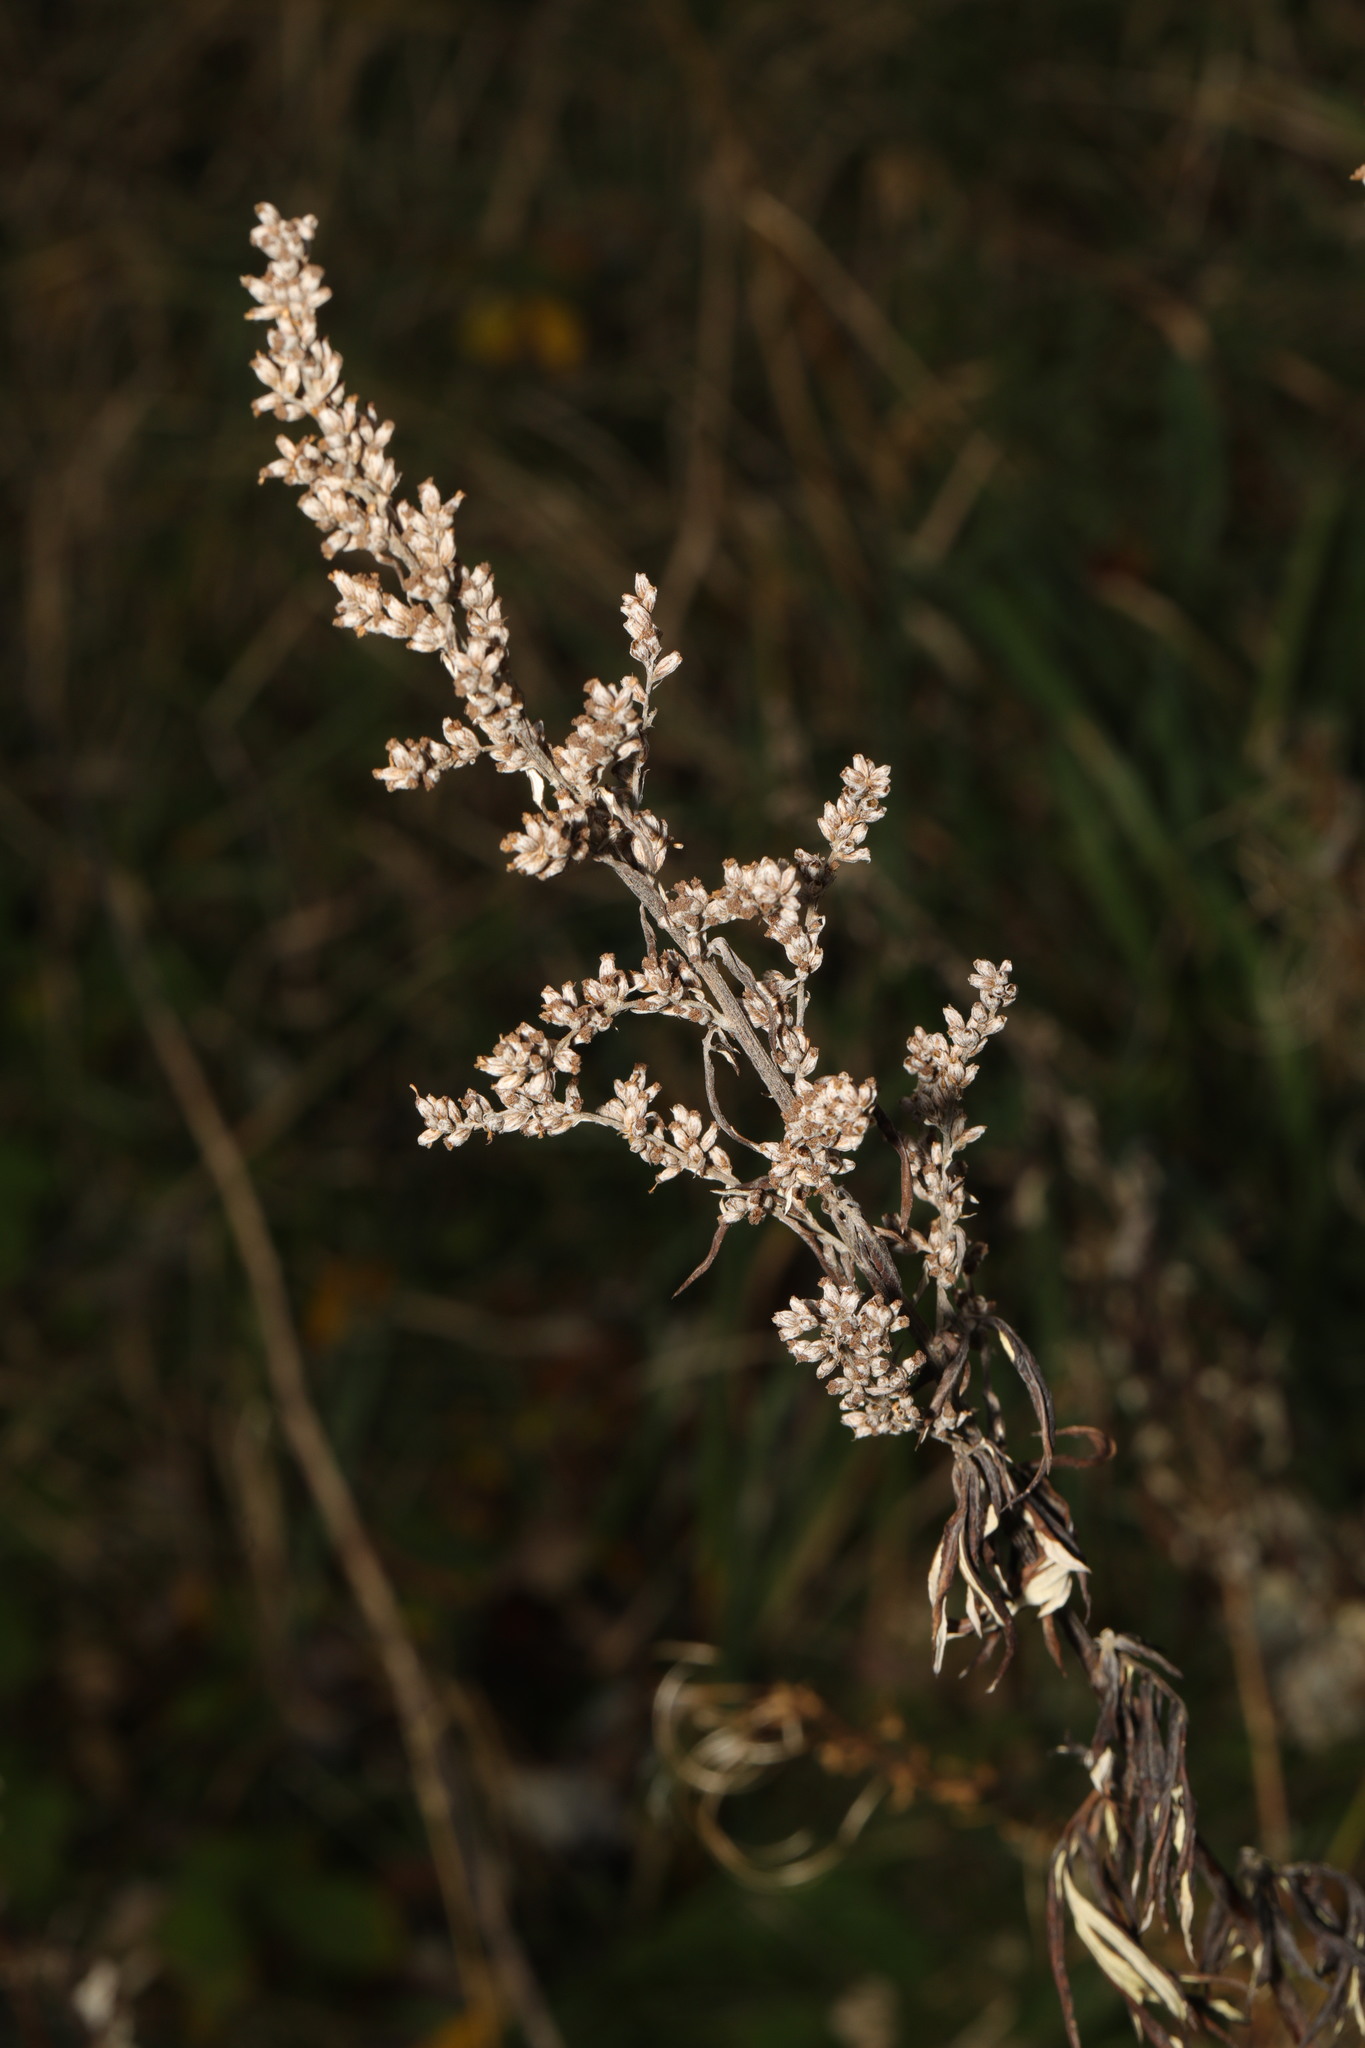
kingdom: Plantae
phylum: Tracheophyta
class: Magnoliopsida
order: Asterales
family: Asteraceae
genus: Artemisia
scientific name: Artemisia vulgaris
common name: Mugwort
